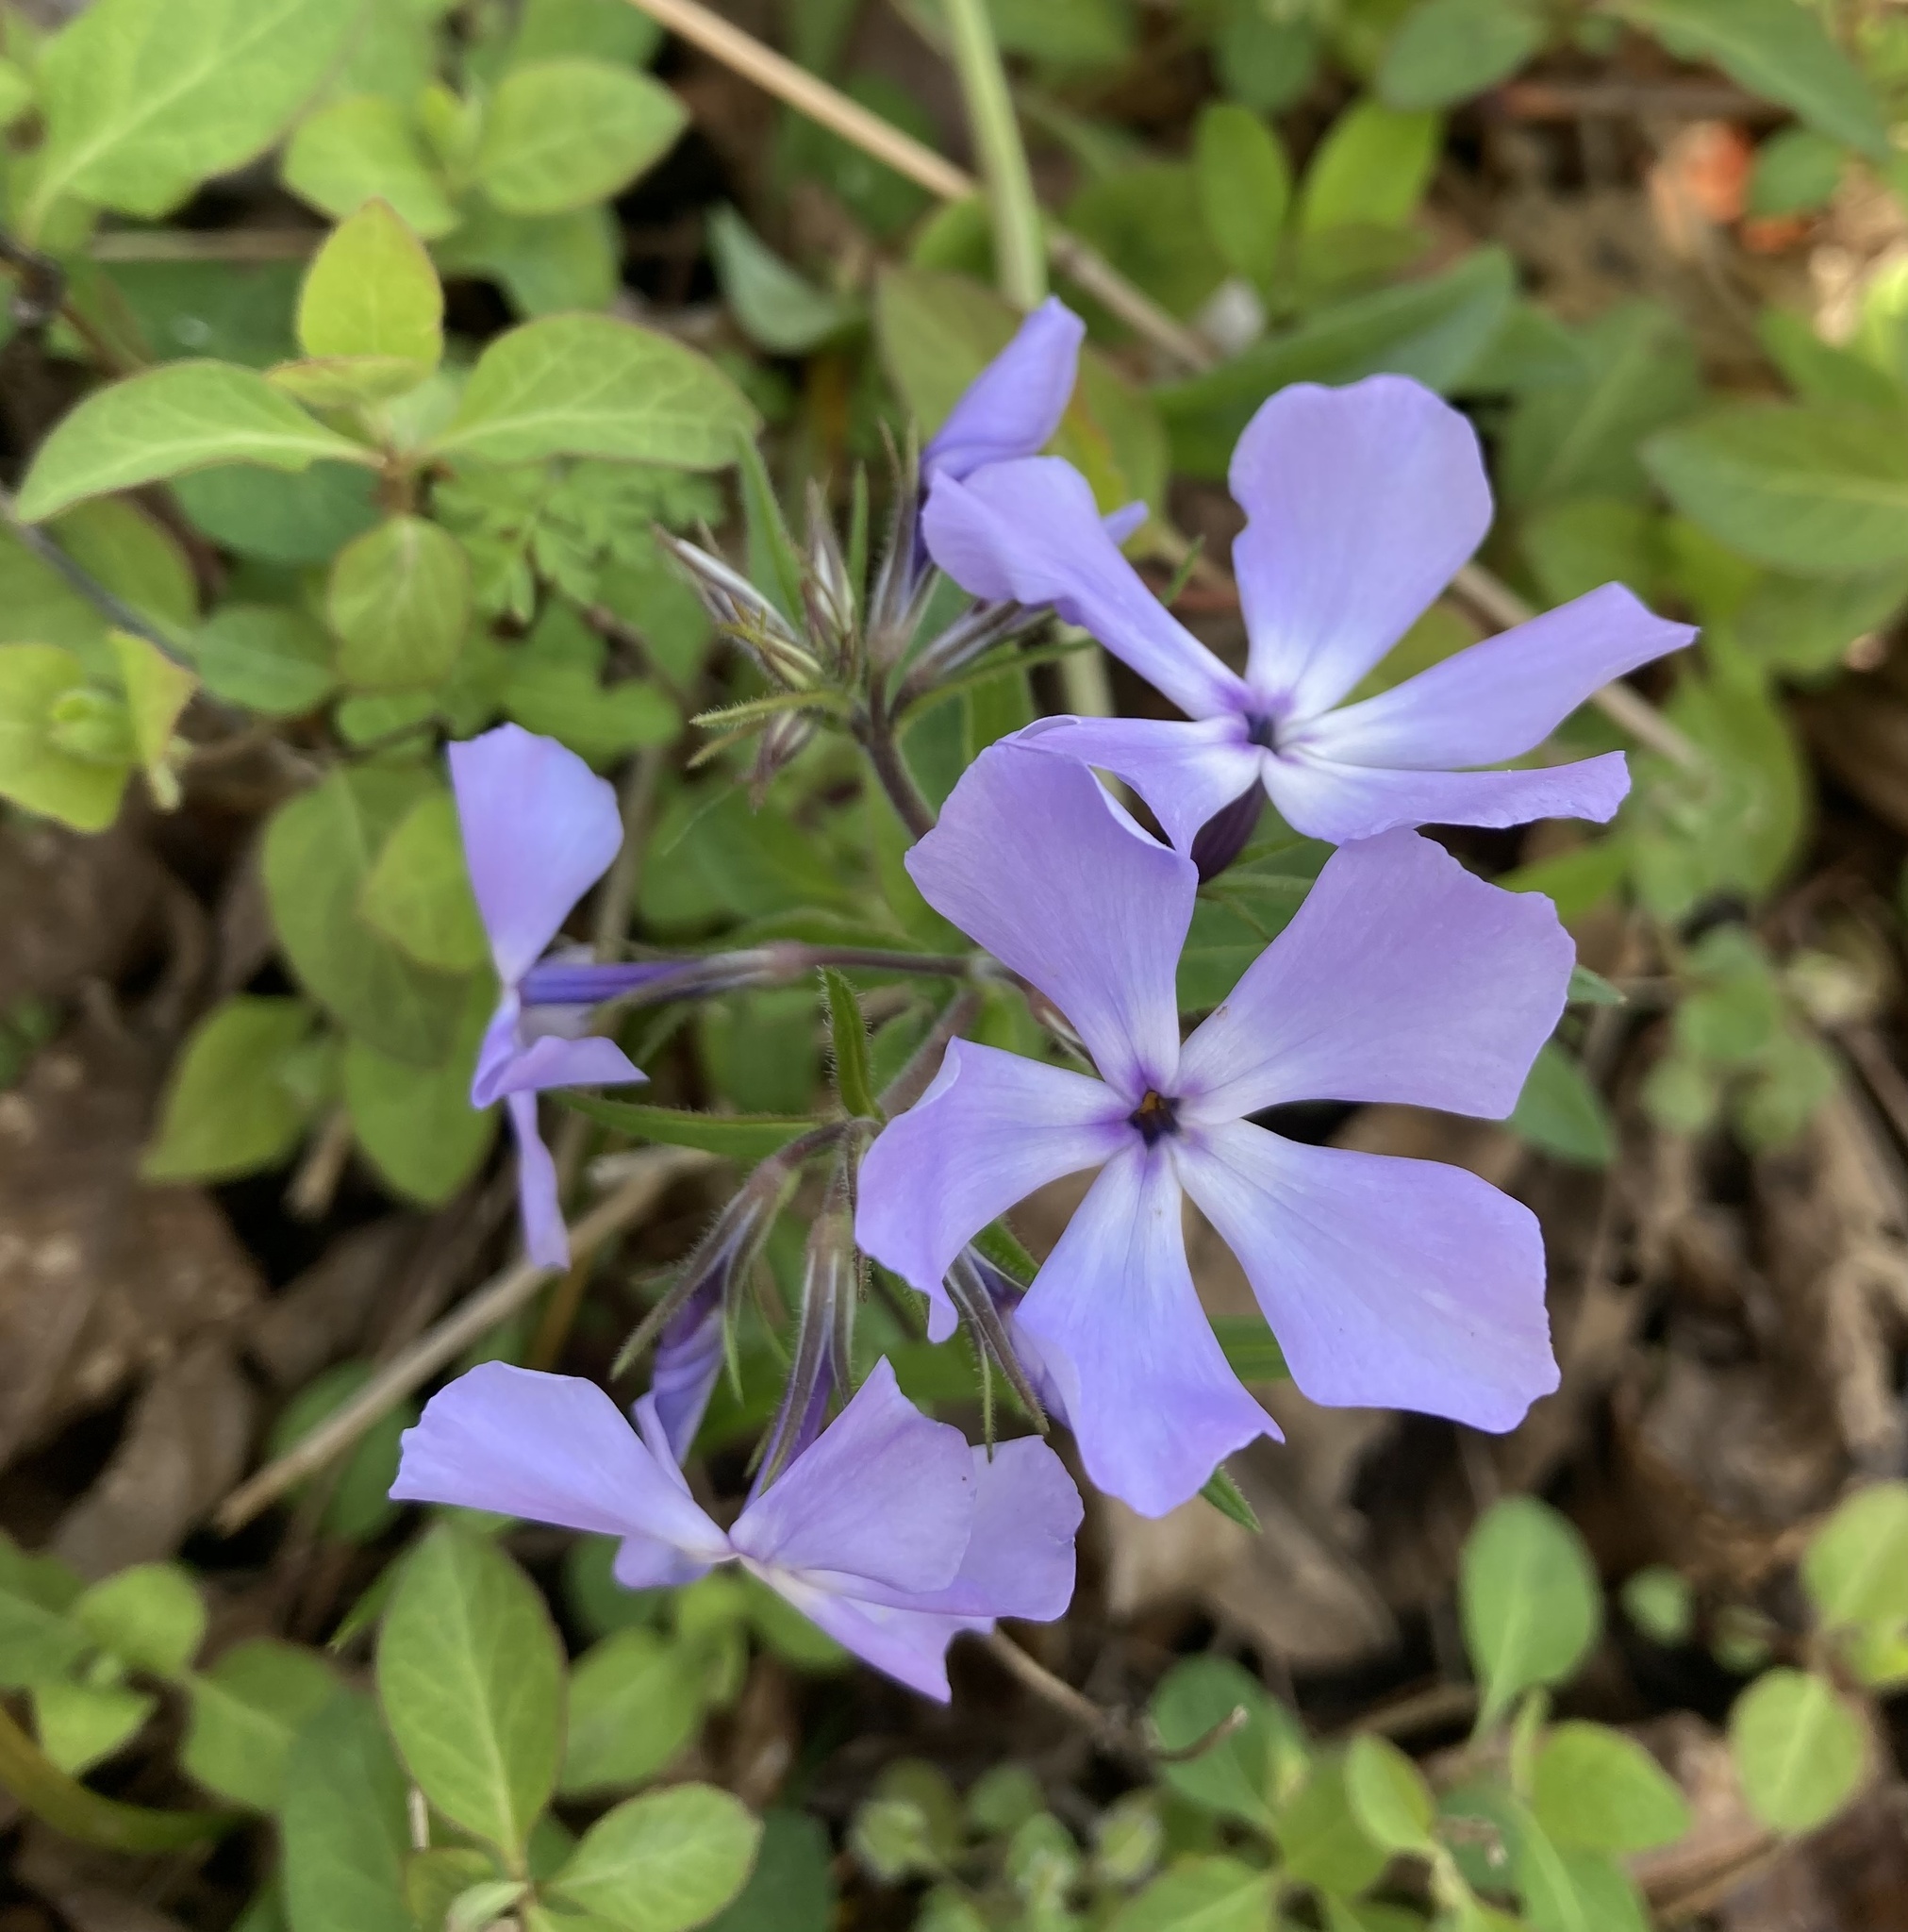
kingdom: Plantae
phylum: Tracheophyta
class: Magnoliopsida
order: Ericales
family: Polemoniaceae
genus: Phlox
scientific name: Phlox divaricata
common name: Blue phlox
